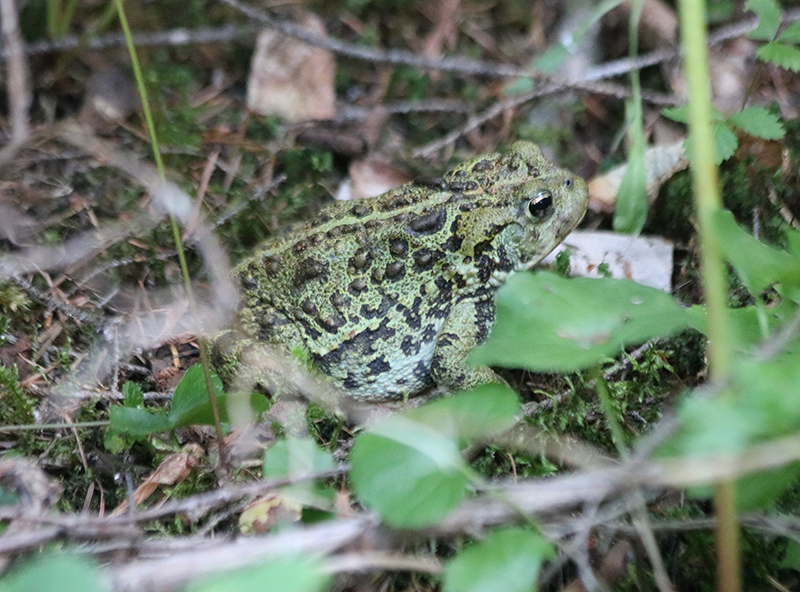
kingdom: Animalia
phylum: Chordata
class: Amphibia
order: Anura
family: Bufonidae
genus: Anaxyrus
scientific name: Anaxyrus boreas
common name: Western toad
